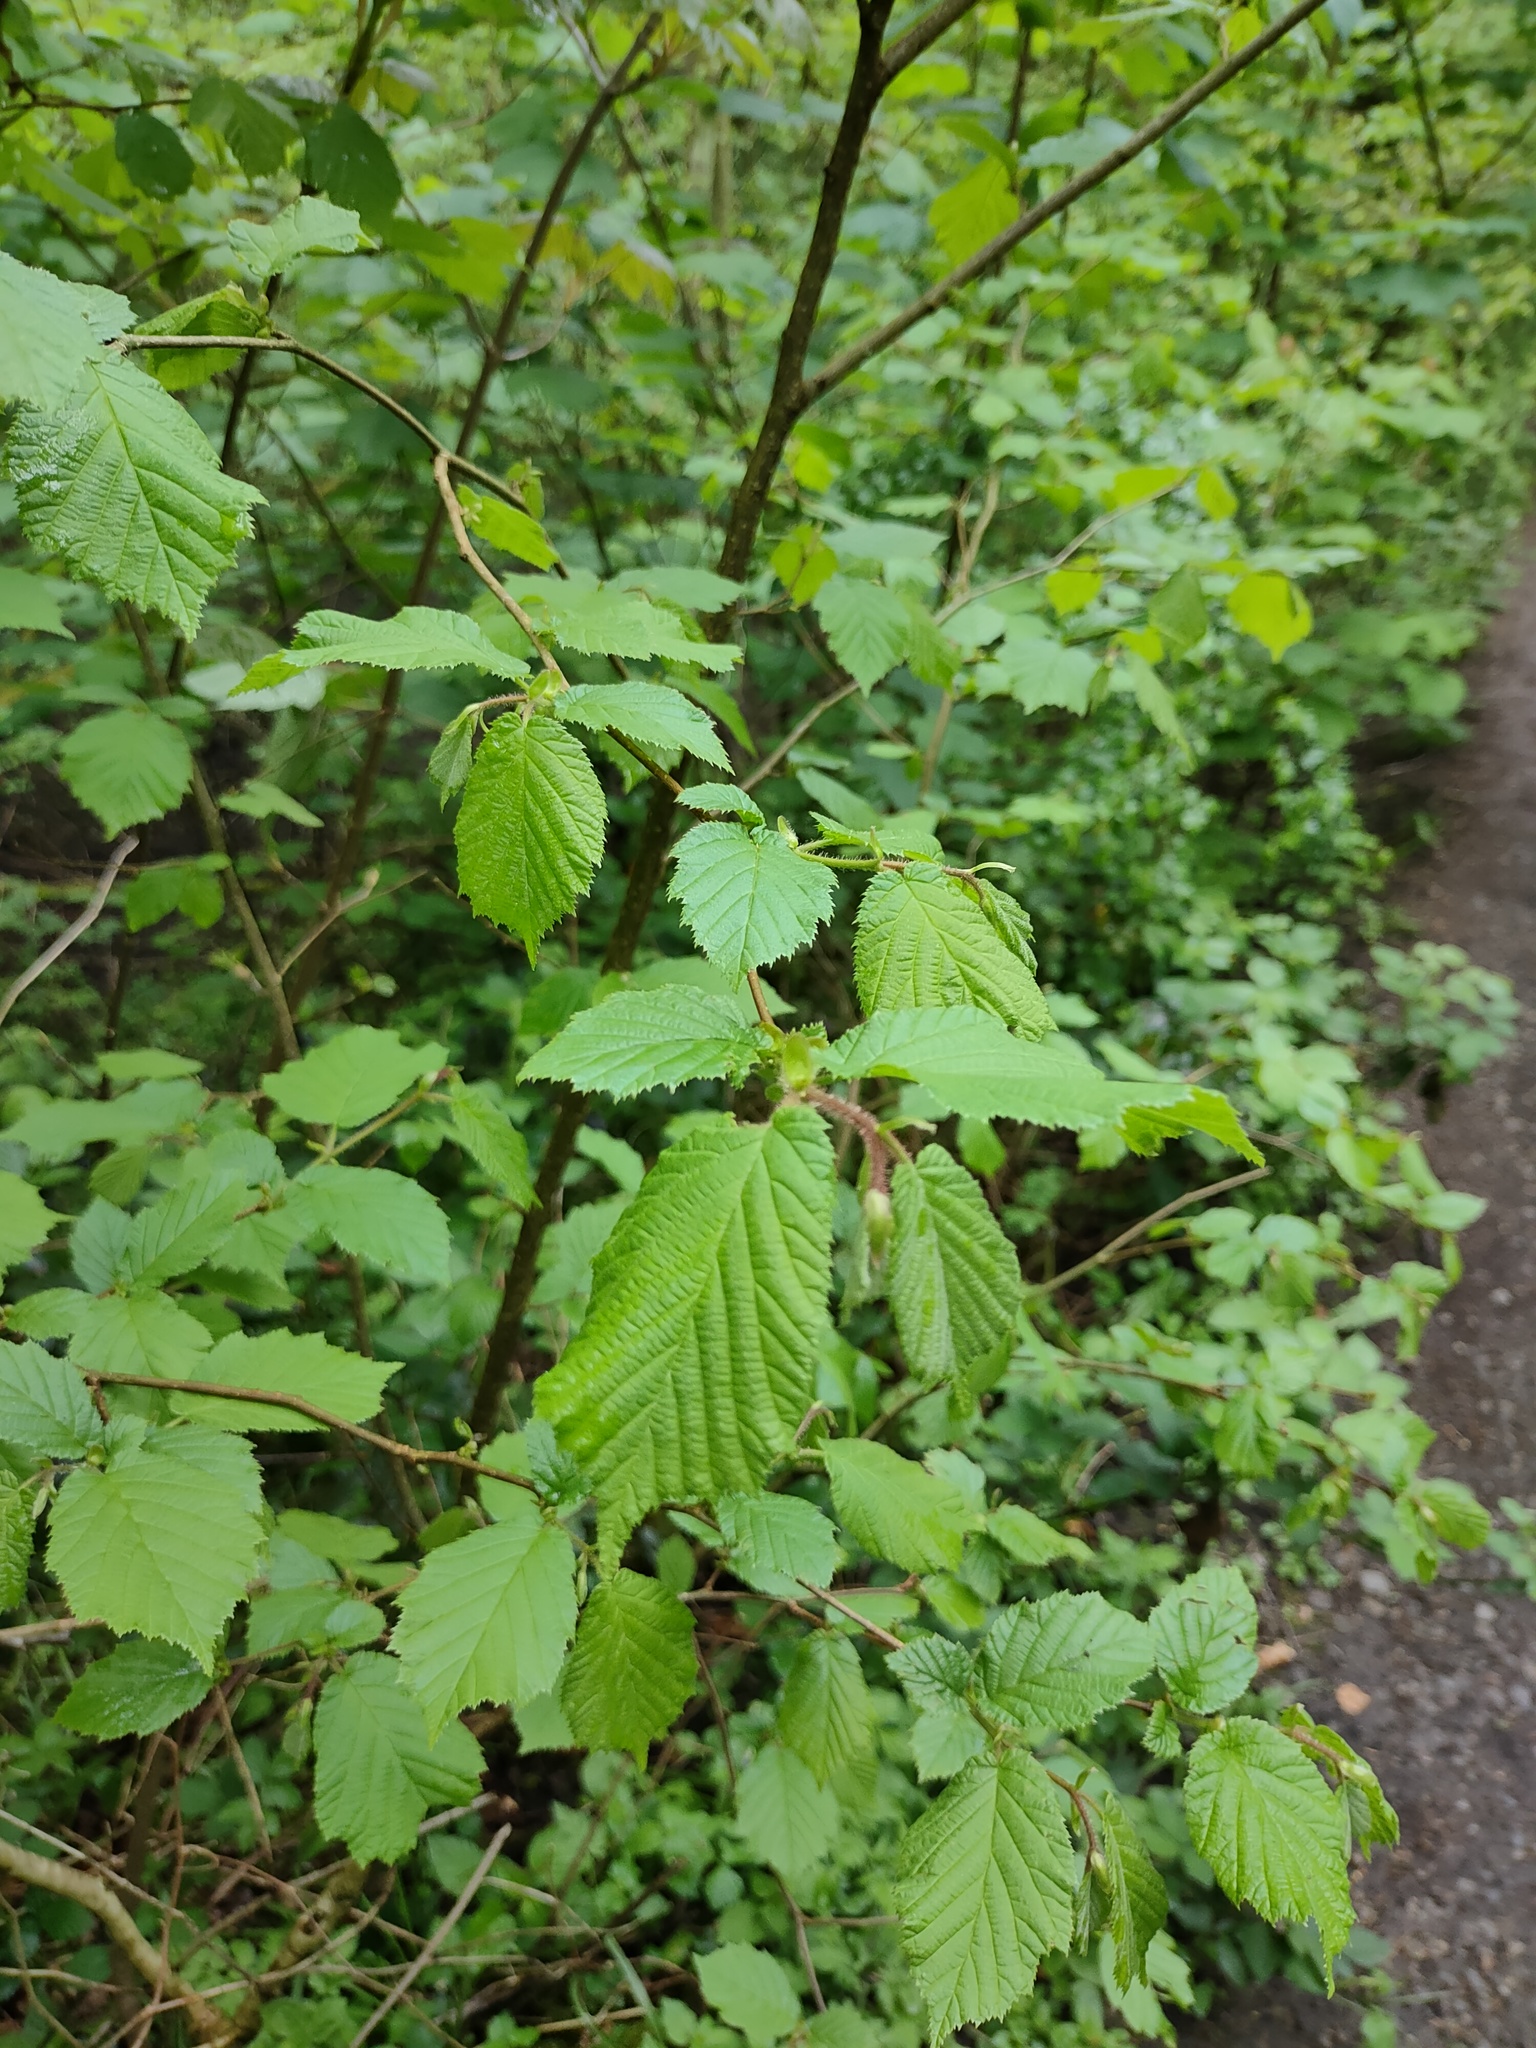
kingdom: Plantae
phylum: Tracheophyta
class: Magnoliopsida
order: Fagales
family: Betulaceae
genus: Corylus
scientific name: Corylus avellana
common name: European hazel
